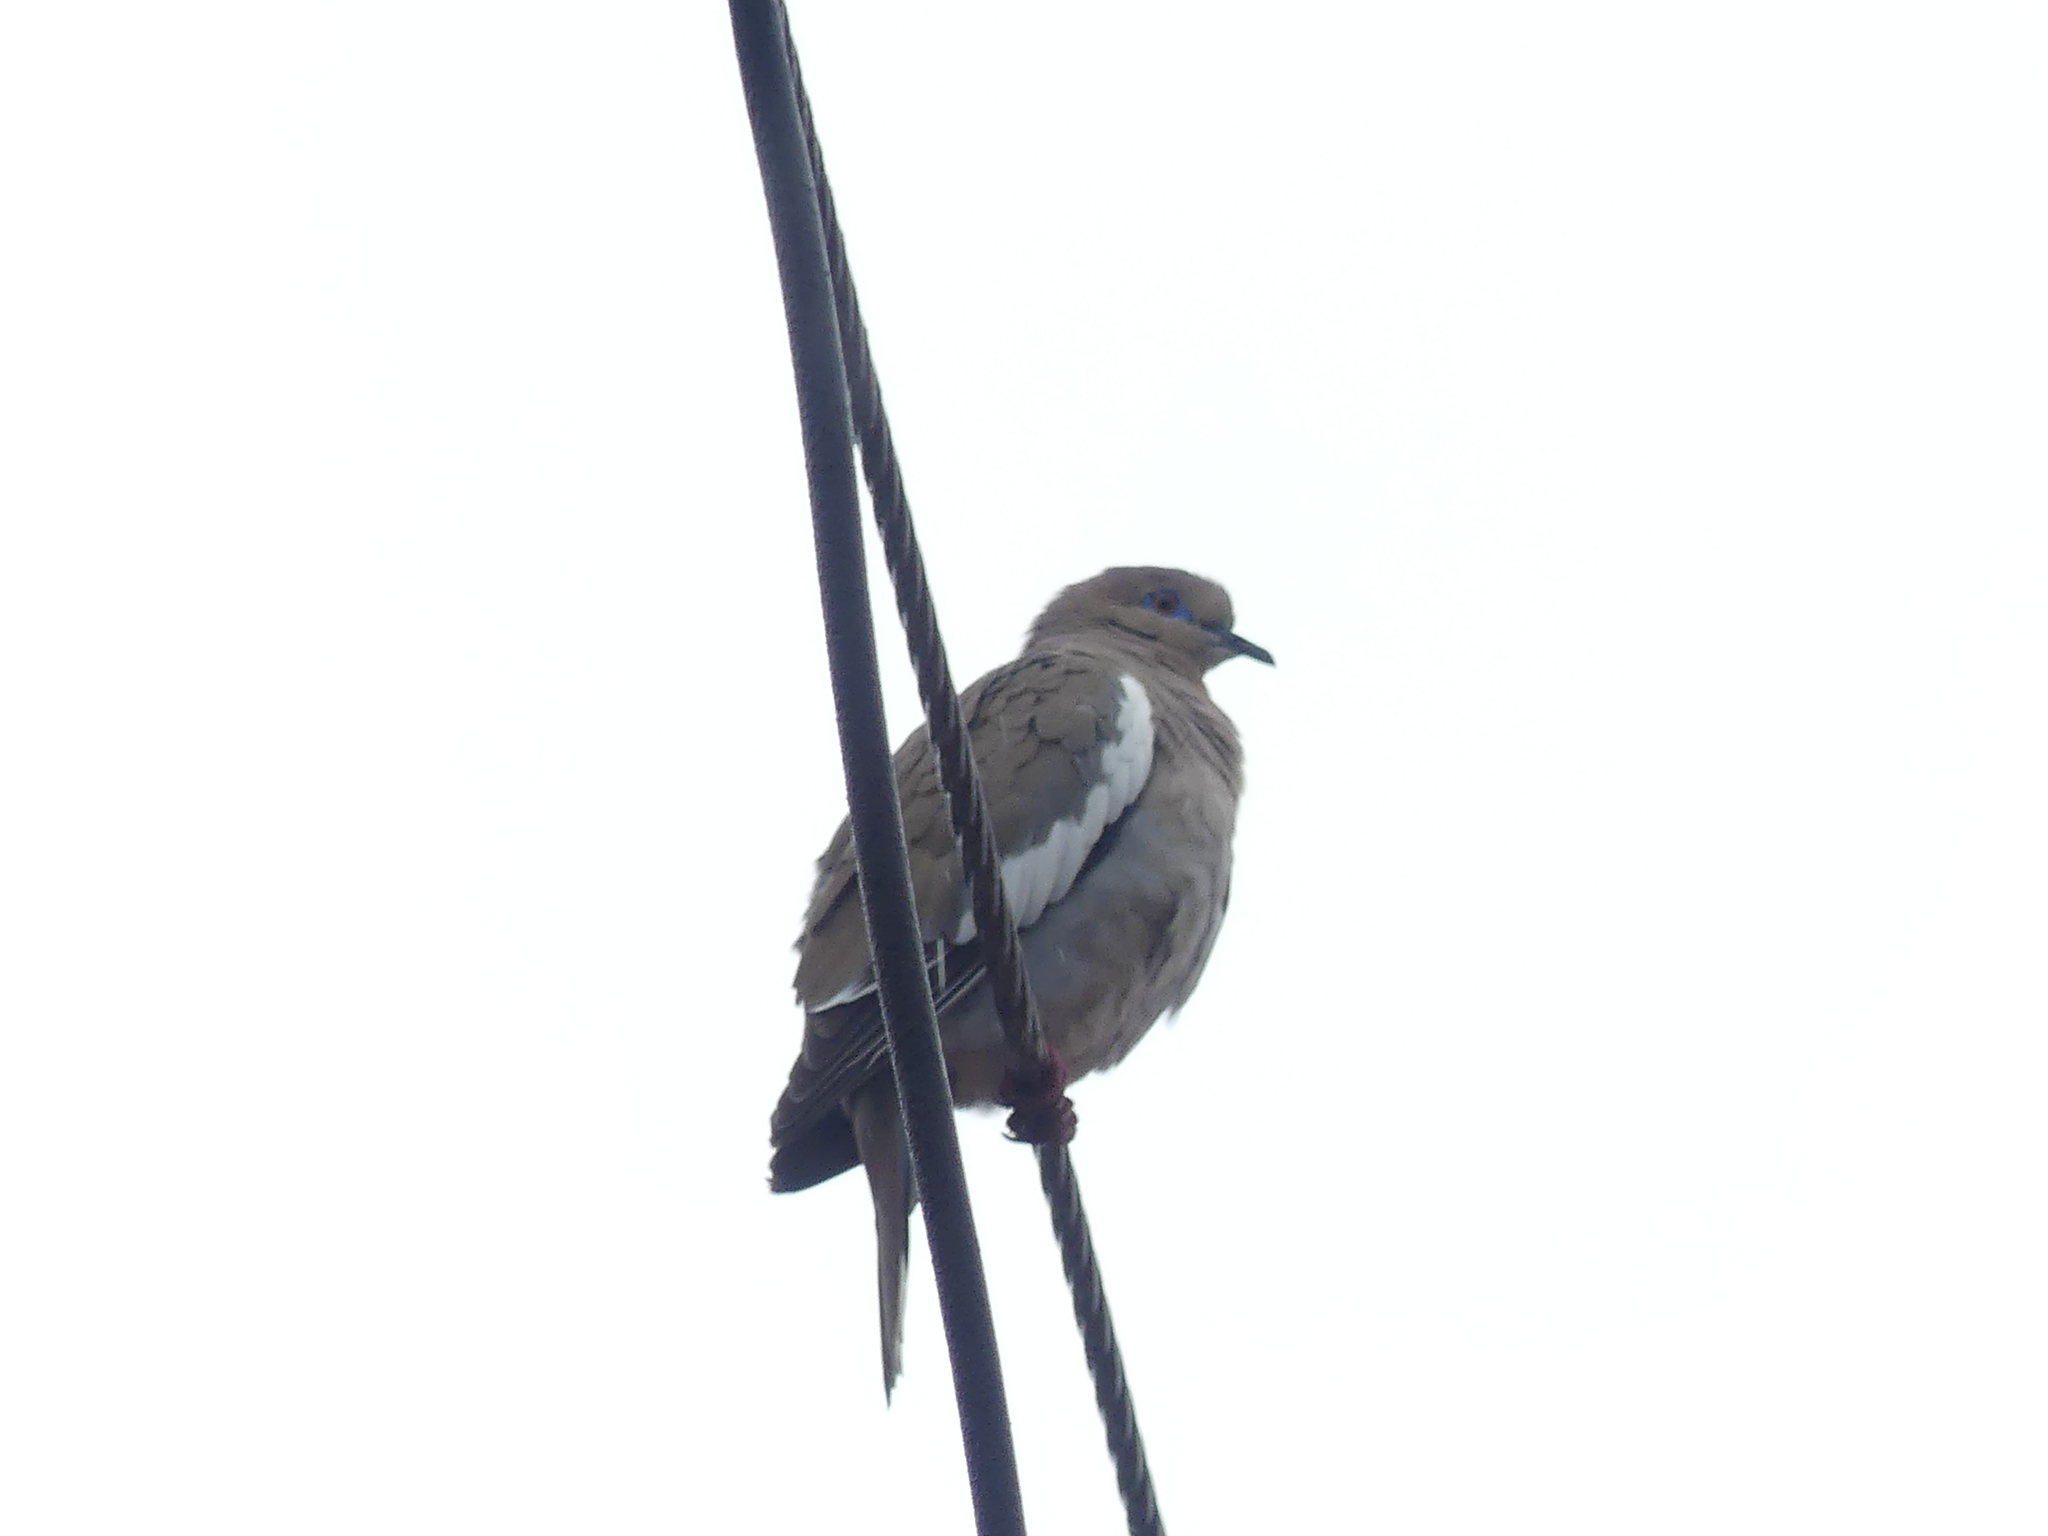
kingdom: Animalia
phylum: Chordata
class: Aves
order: Columbiformes
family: Columbidae
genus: Zenaida
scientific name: Zenaida asiatica
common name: White-winged dove
